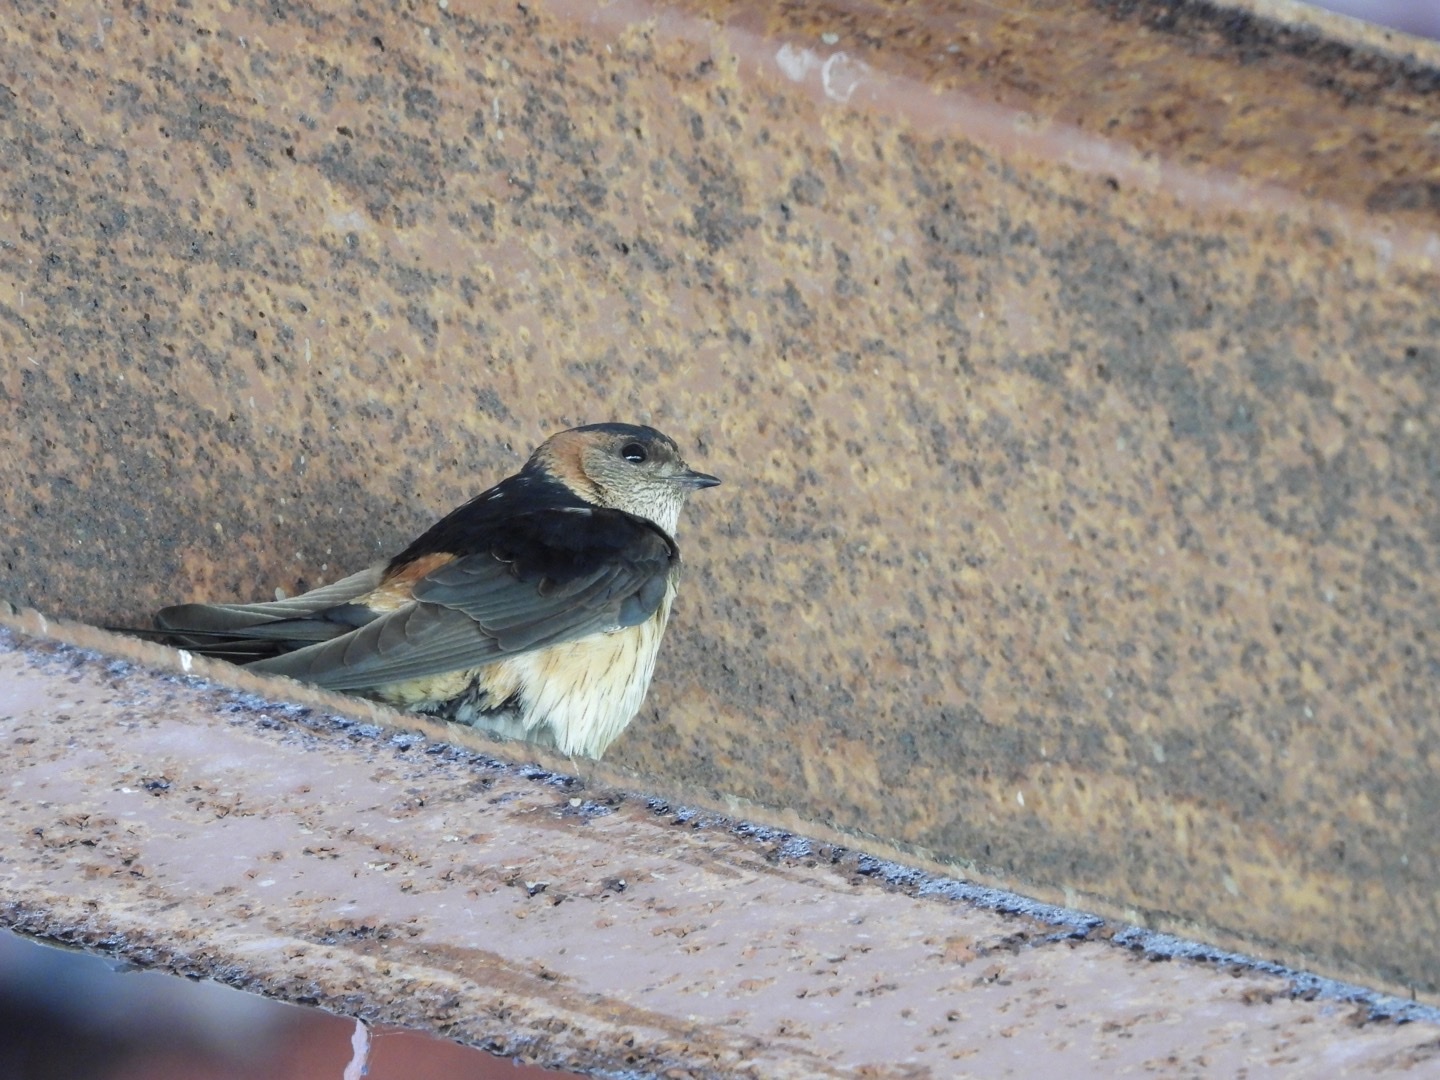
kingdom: Animalia
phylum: Chordata
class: Aves
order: Passeriformes
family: Hirundinidae
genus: Cecropis
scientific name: Cecropis daurica
